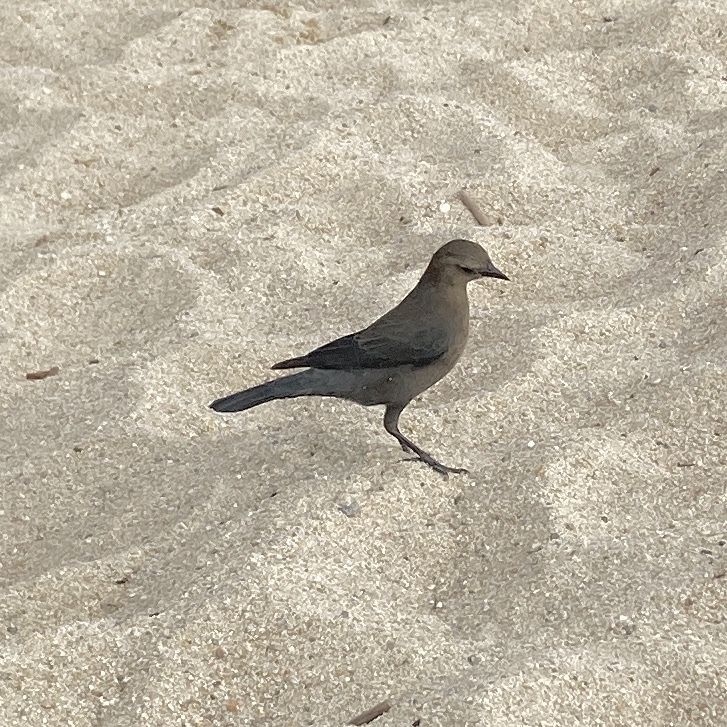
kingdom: Animalia
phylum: Chordata
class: Aves
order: Passeriformes
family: Icteridae
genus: Euphagus
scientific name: Euphagus cyanocephalus
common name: Brewer's blackbird
